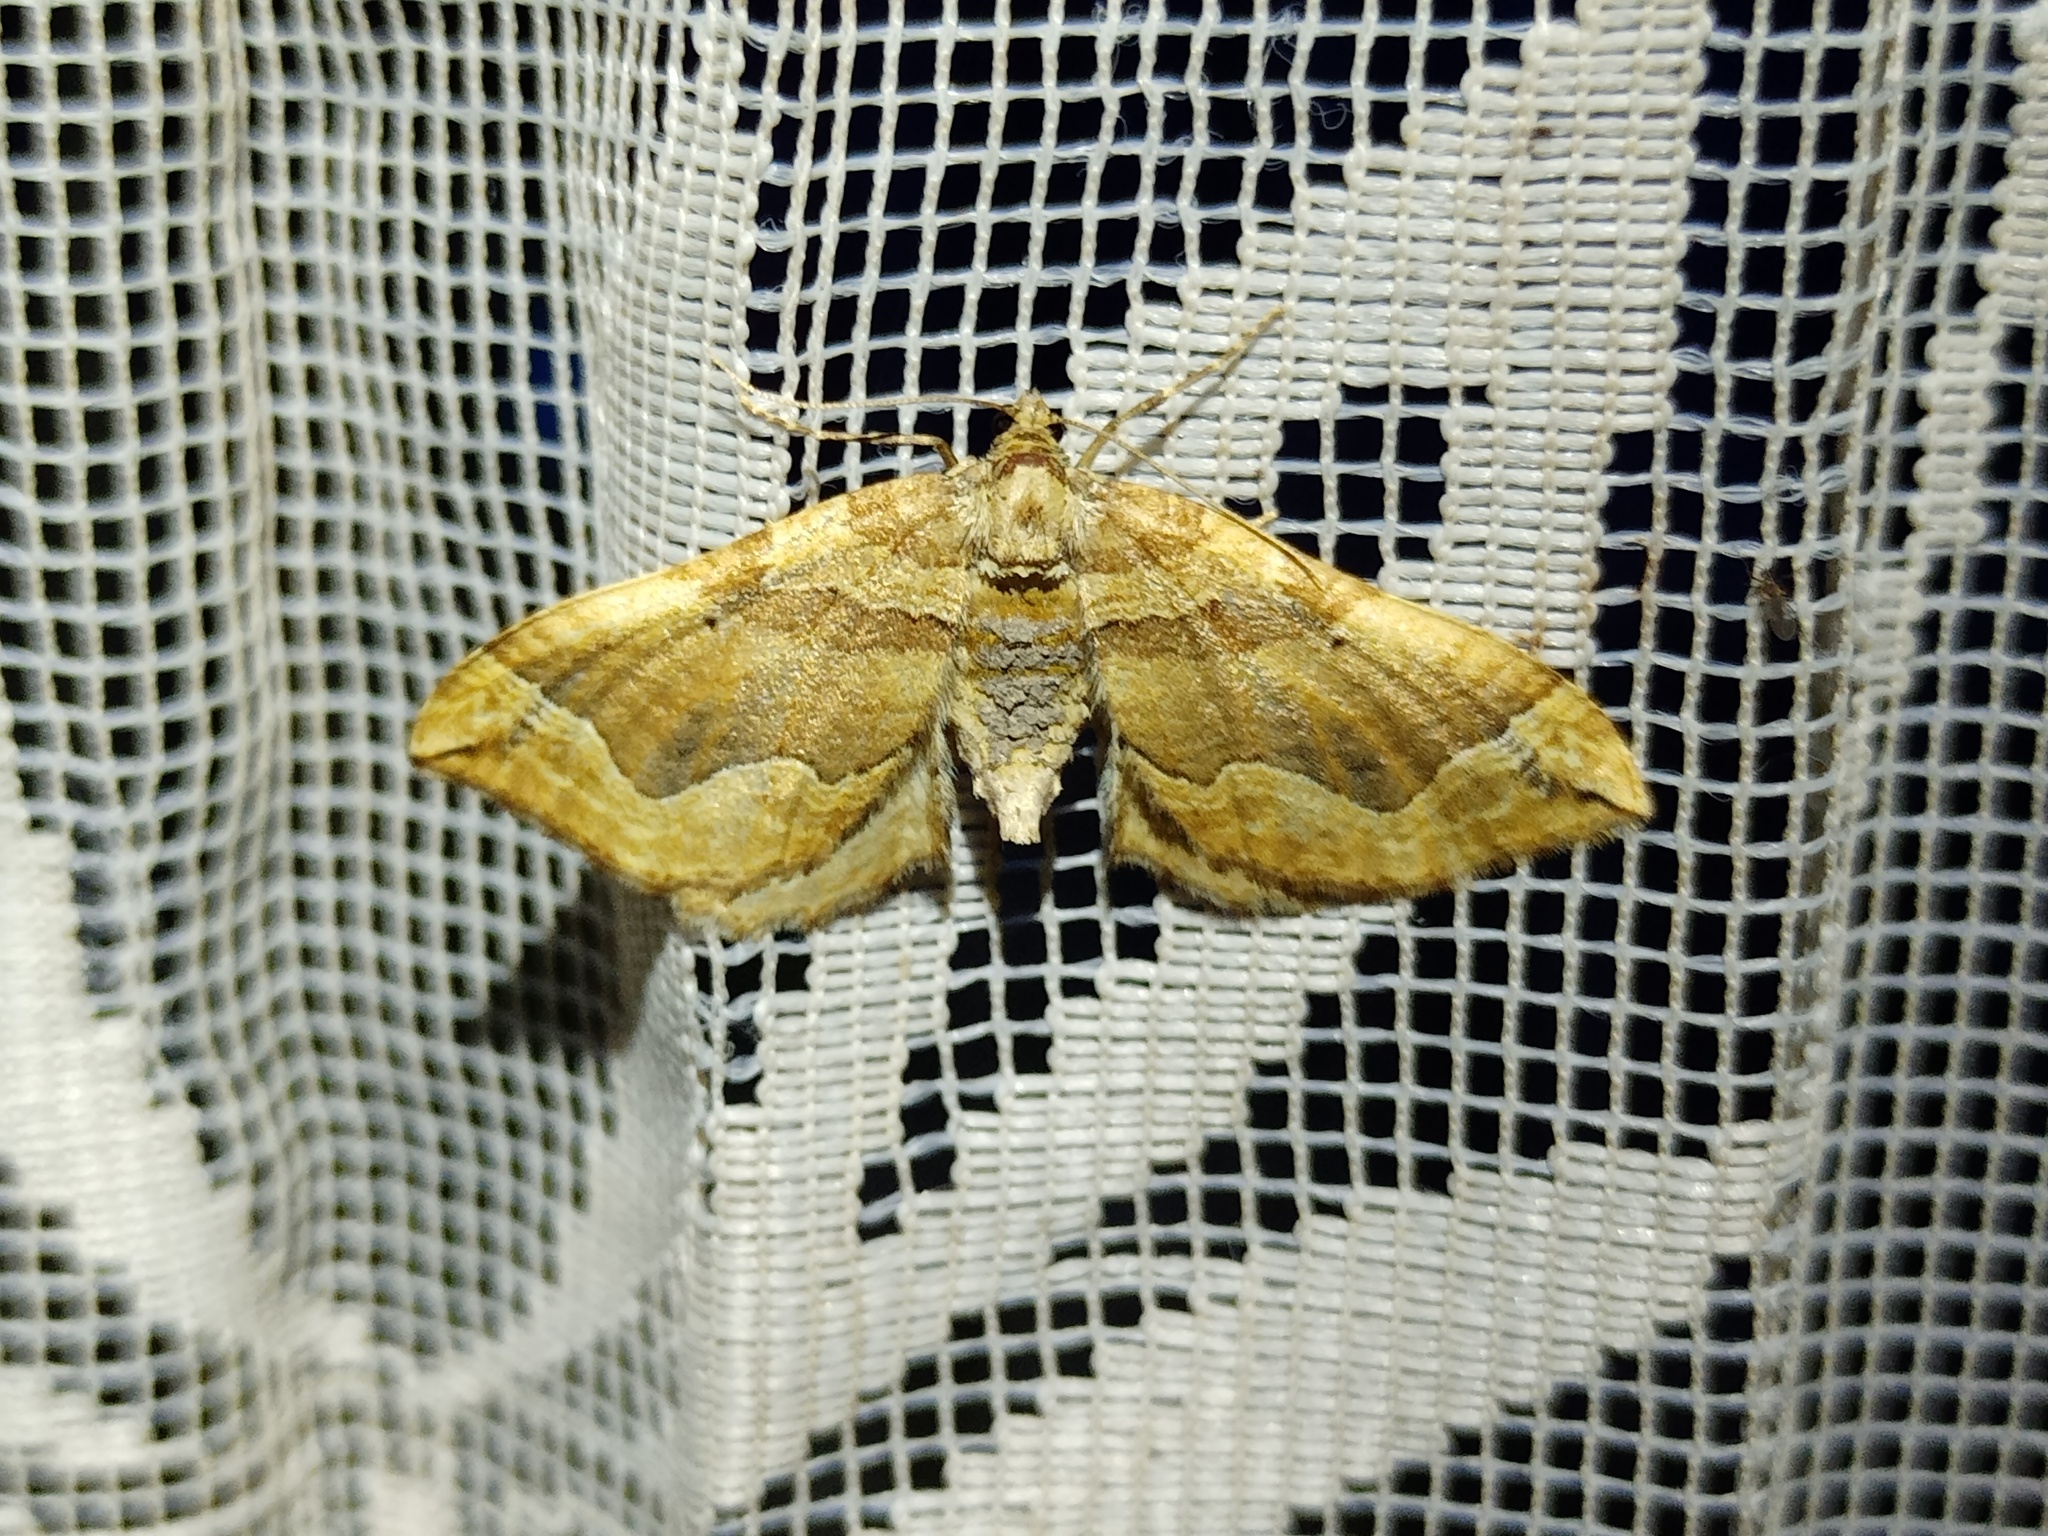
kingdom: Animalia
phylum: Arthropoda
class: Insecta
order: Lepidoptera
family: Geometridae
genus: Pelurga
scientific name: Pelurga comitata
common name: Dark spinach
